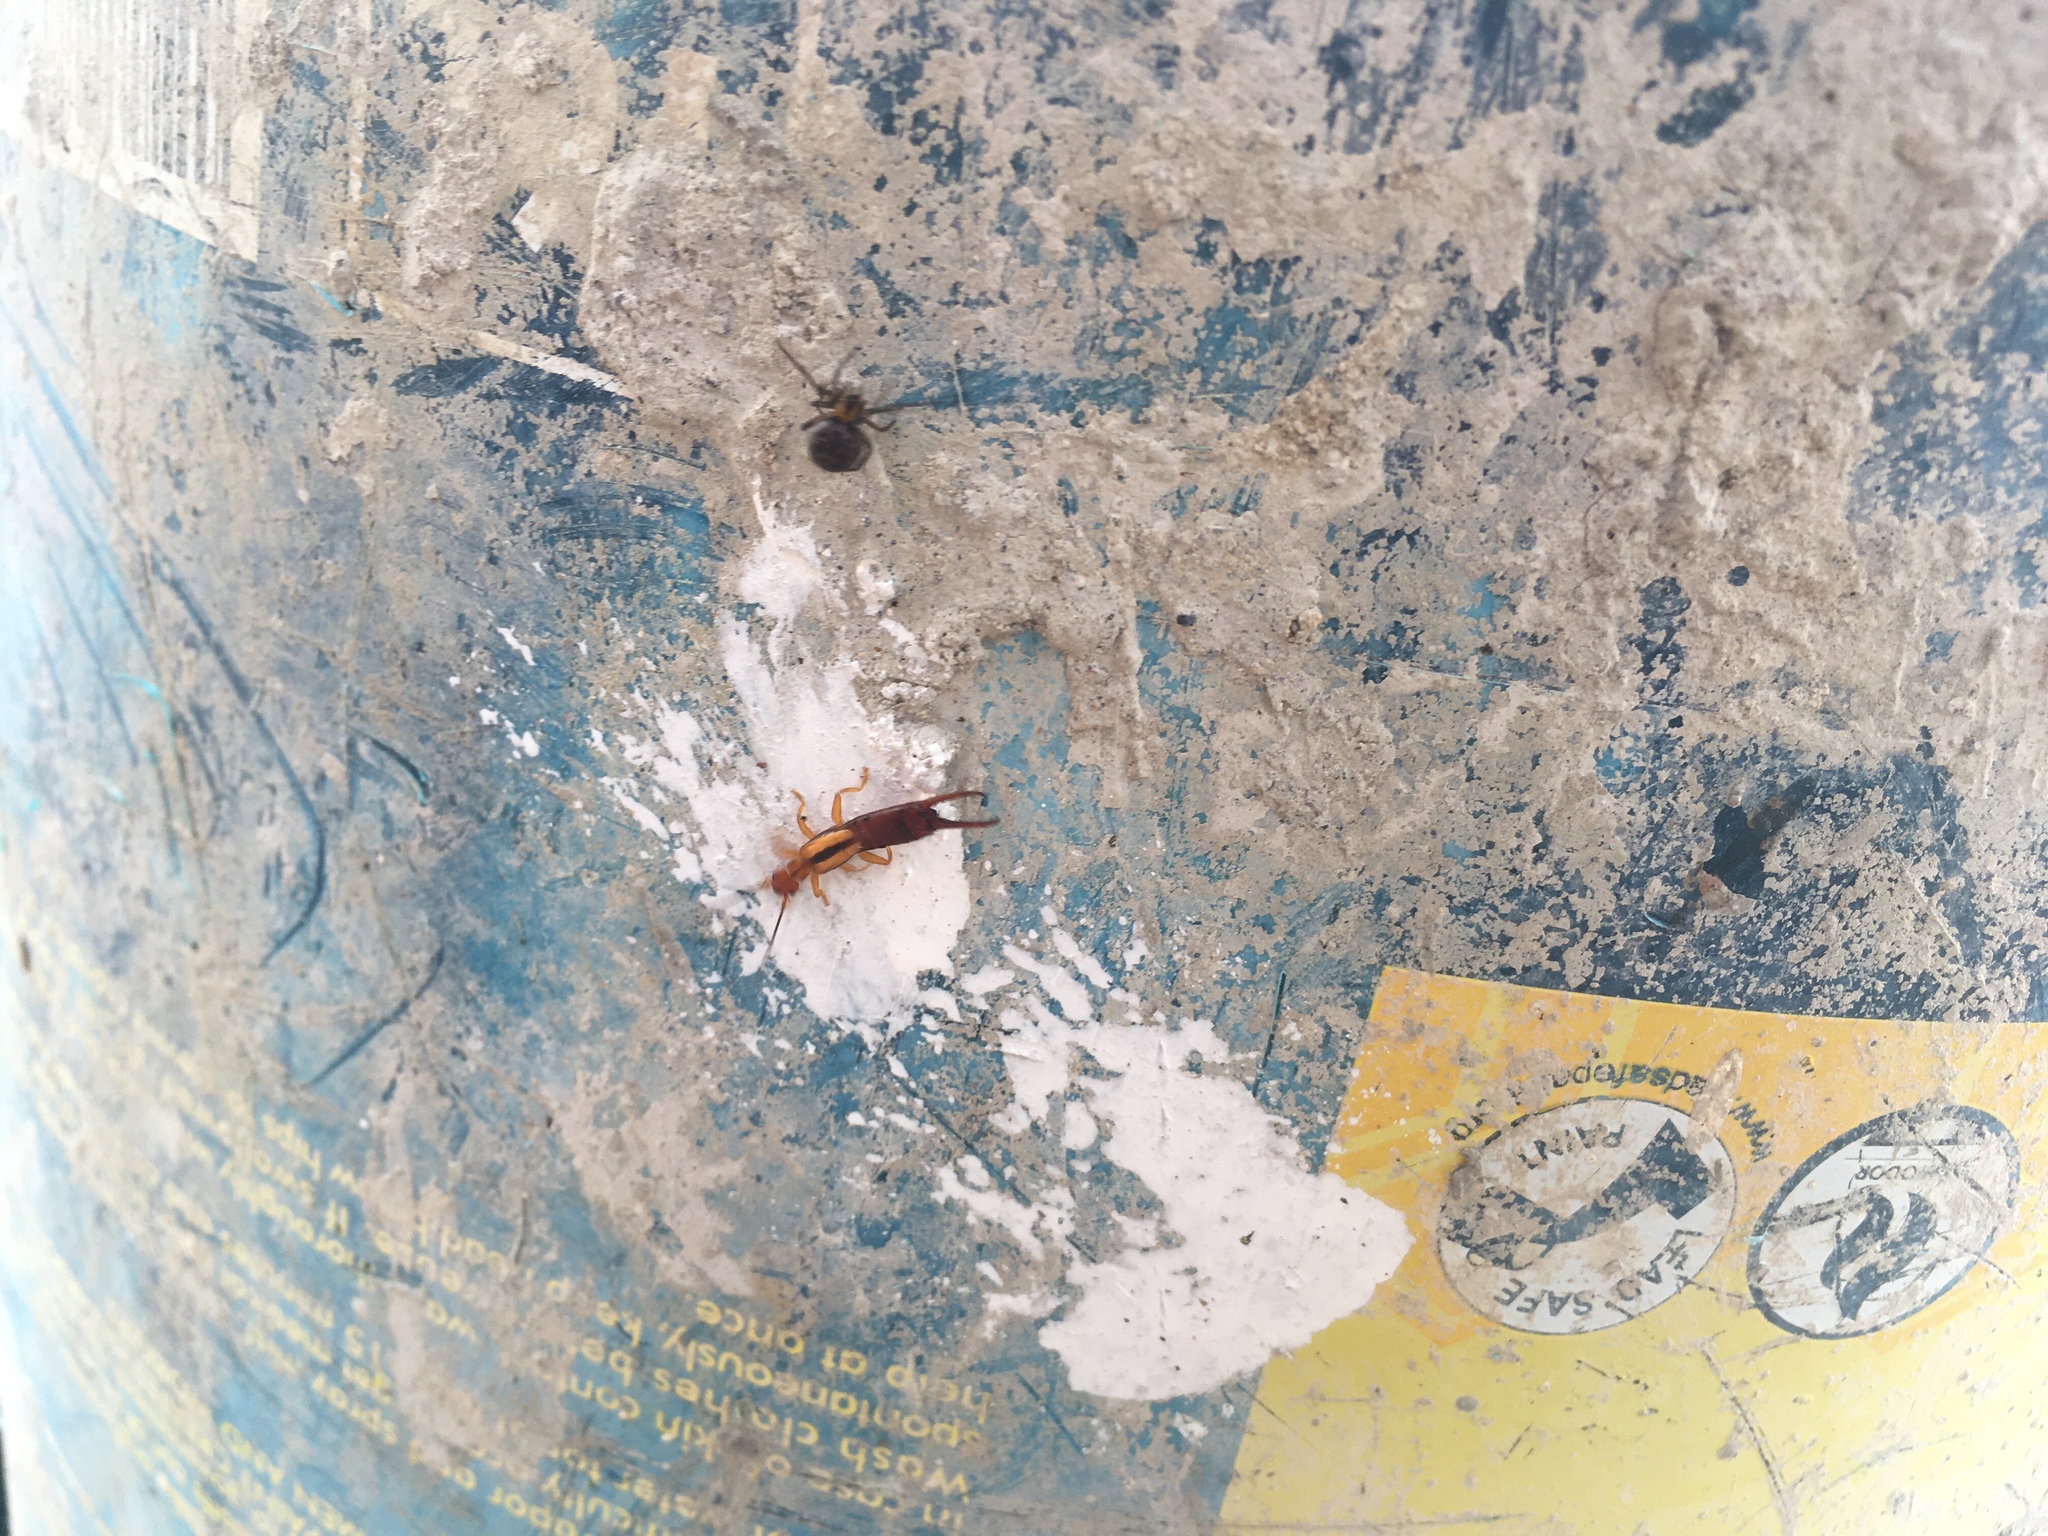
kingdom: Animalia
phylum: Arthropoda
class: Insecta
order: Dermaptera
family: Chelisochidae
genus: Proreus
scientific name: Proreus simulans
